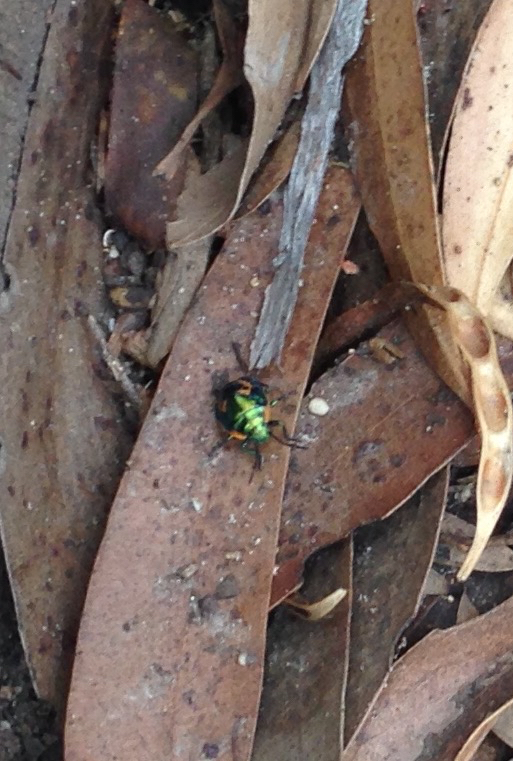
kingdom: Animalia
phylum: Arthropoda
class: Insecta
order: Hemiptera
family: Scutelleridae
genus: Scutiphora
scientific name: Scutiphora pedicellata
